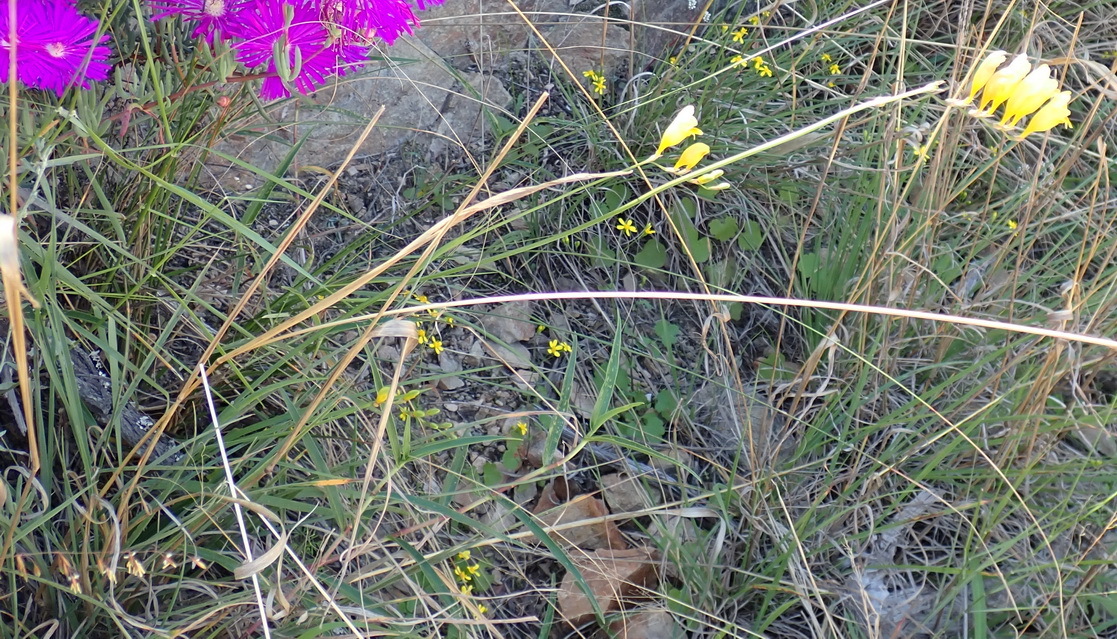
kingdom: Plantae
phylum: Tracheophyta
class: Liliopsida
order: Asparagales
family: Iridaceae
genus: Freesia
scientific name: Freesia corymbosa
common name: Common freesia
